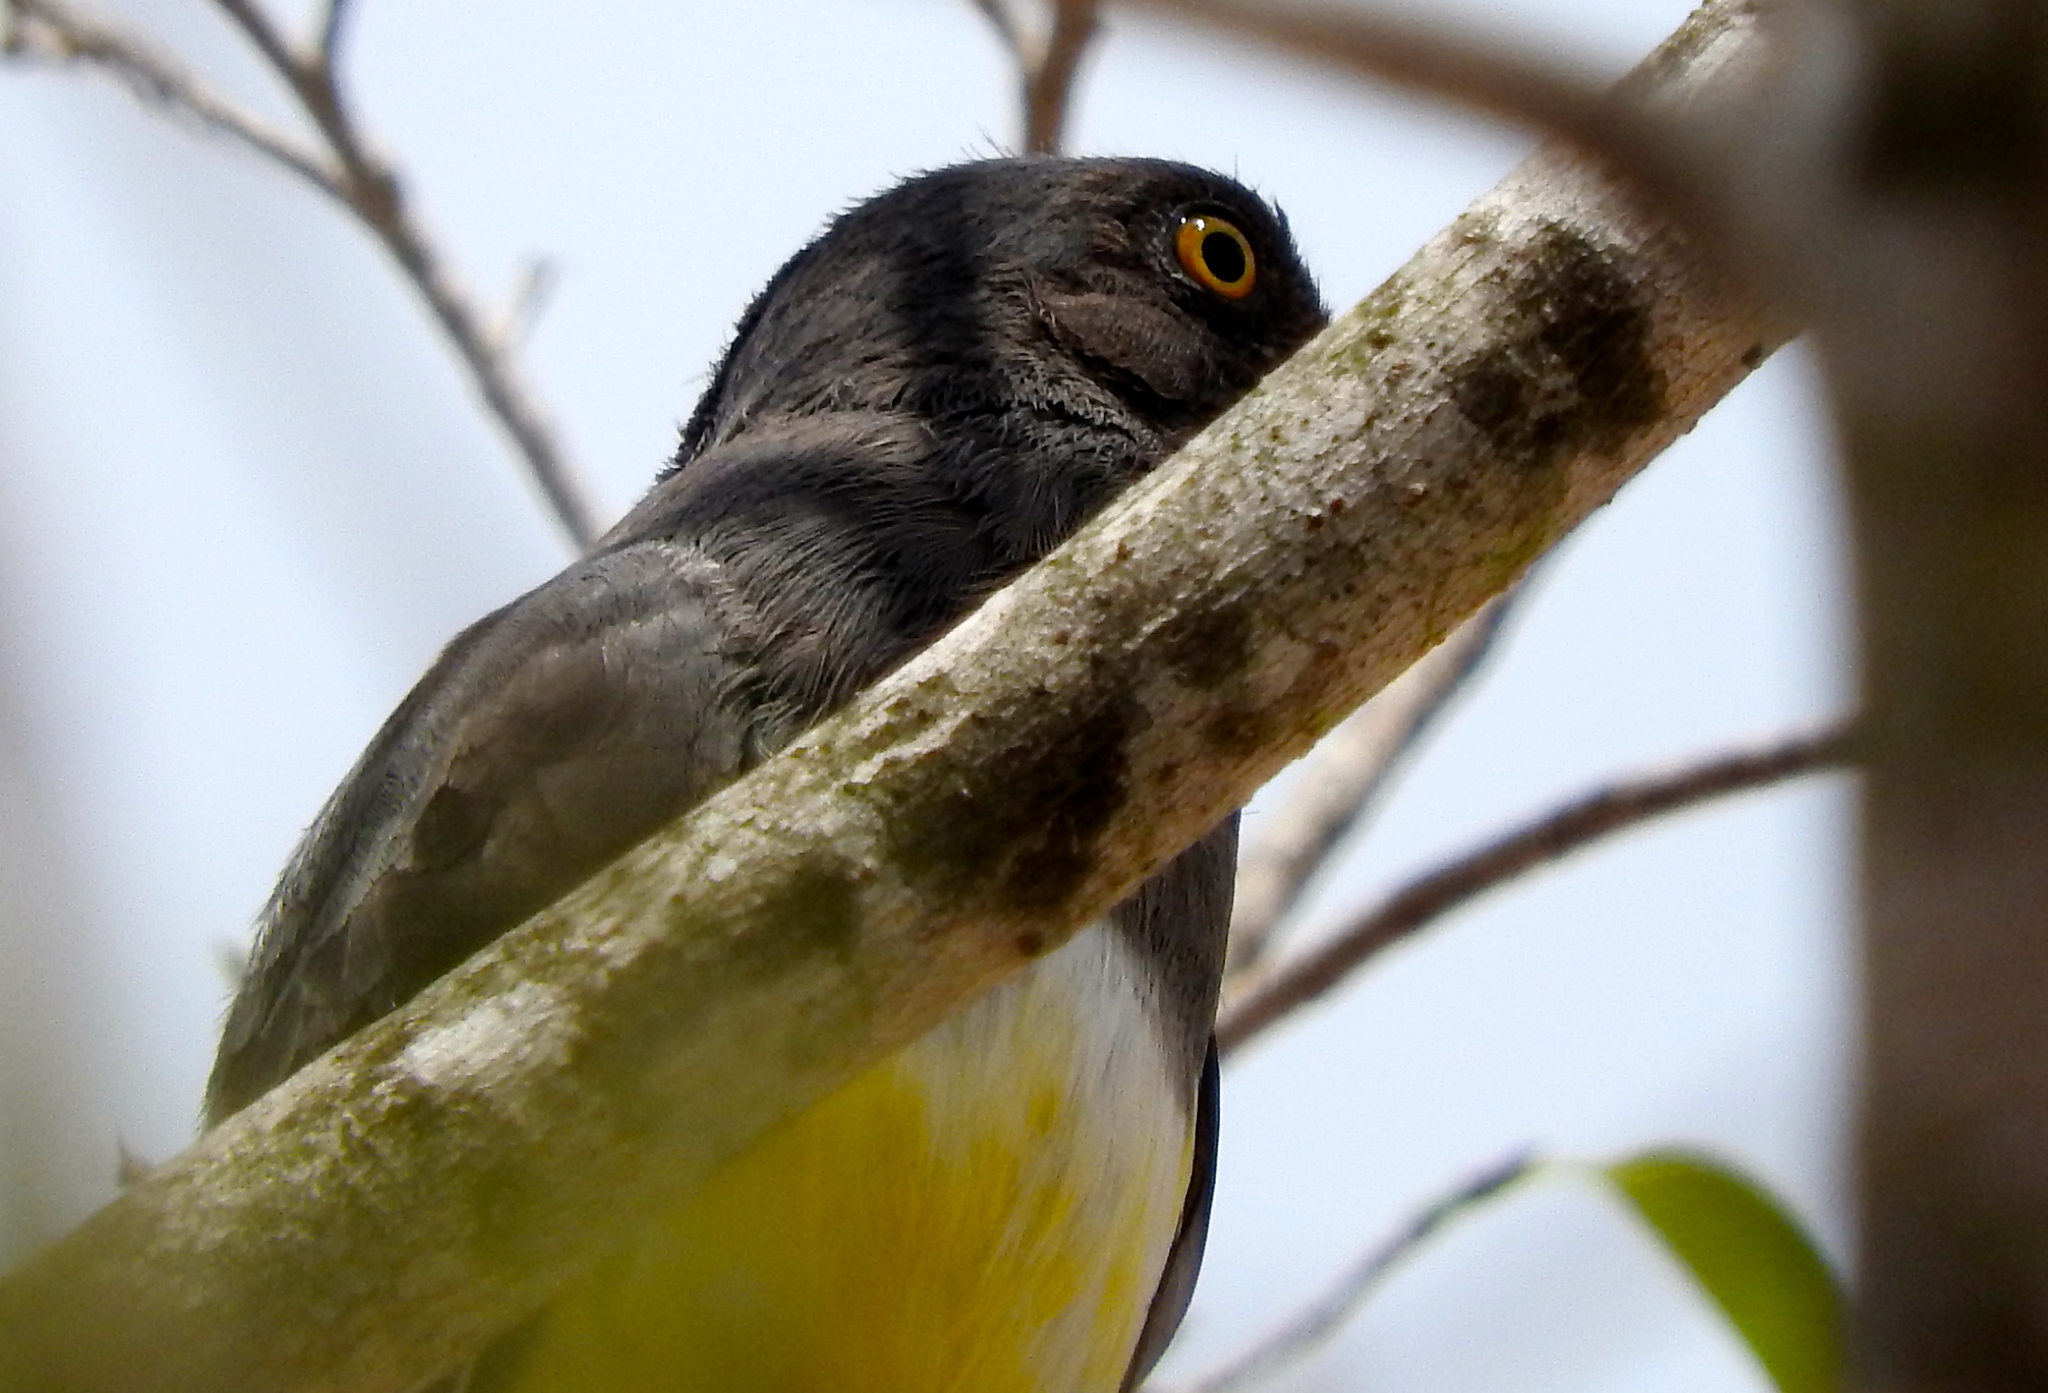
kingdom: Animalia
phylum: Chordata
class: Aves
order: Trogoniformes
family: Trogonidae
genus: Trogon
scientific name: Trogon citreolus
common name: Citreoline trogon
